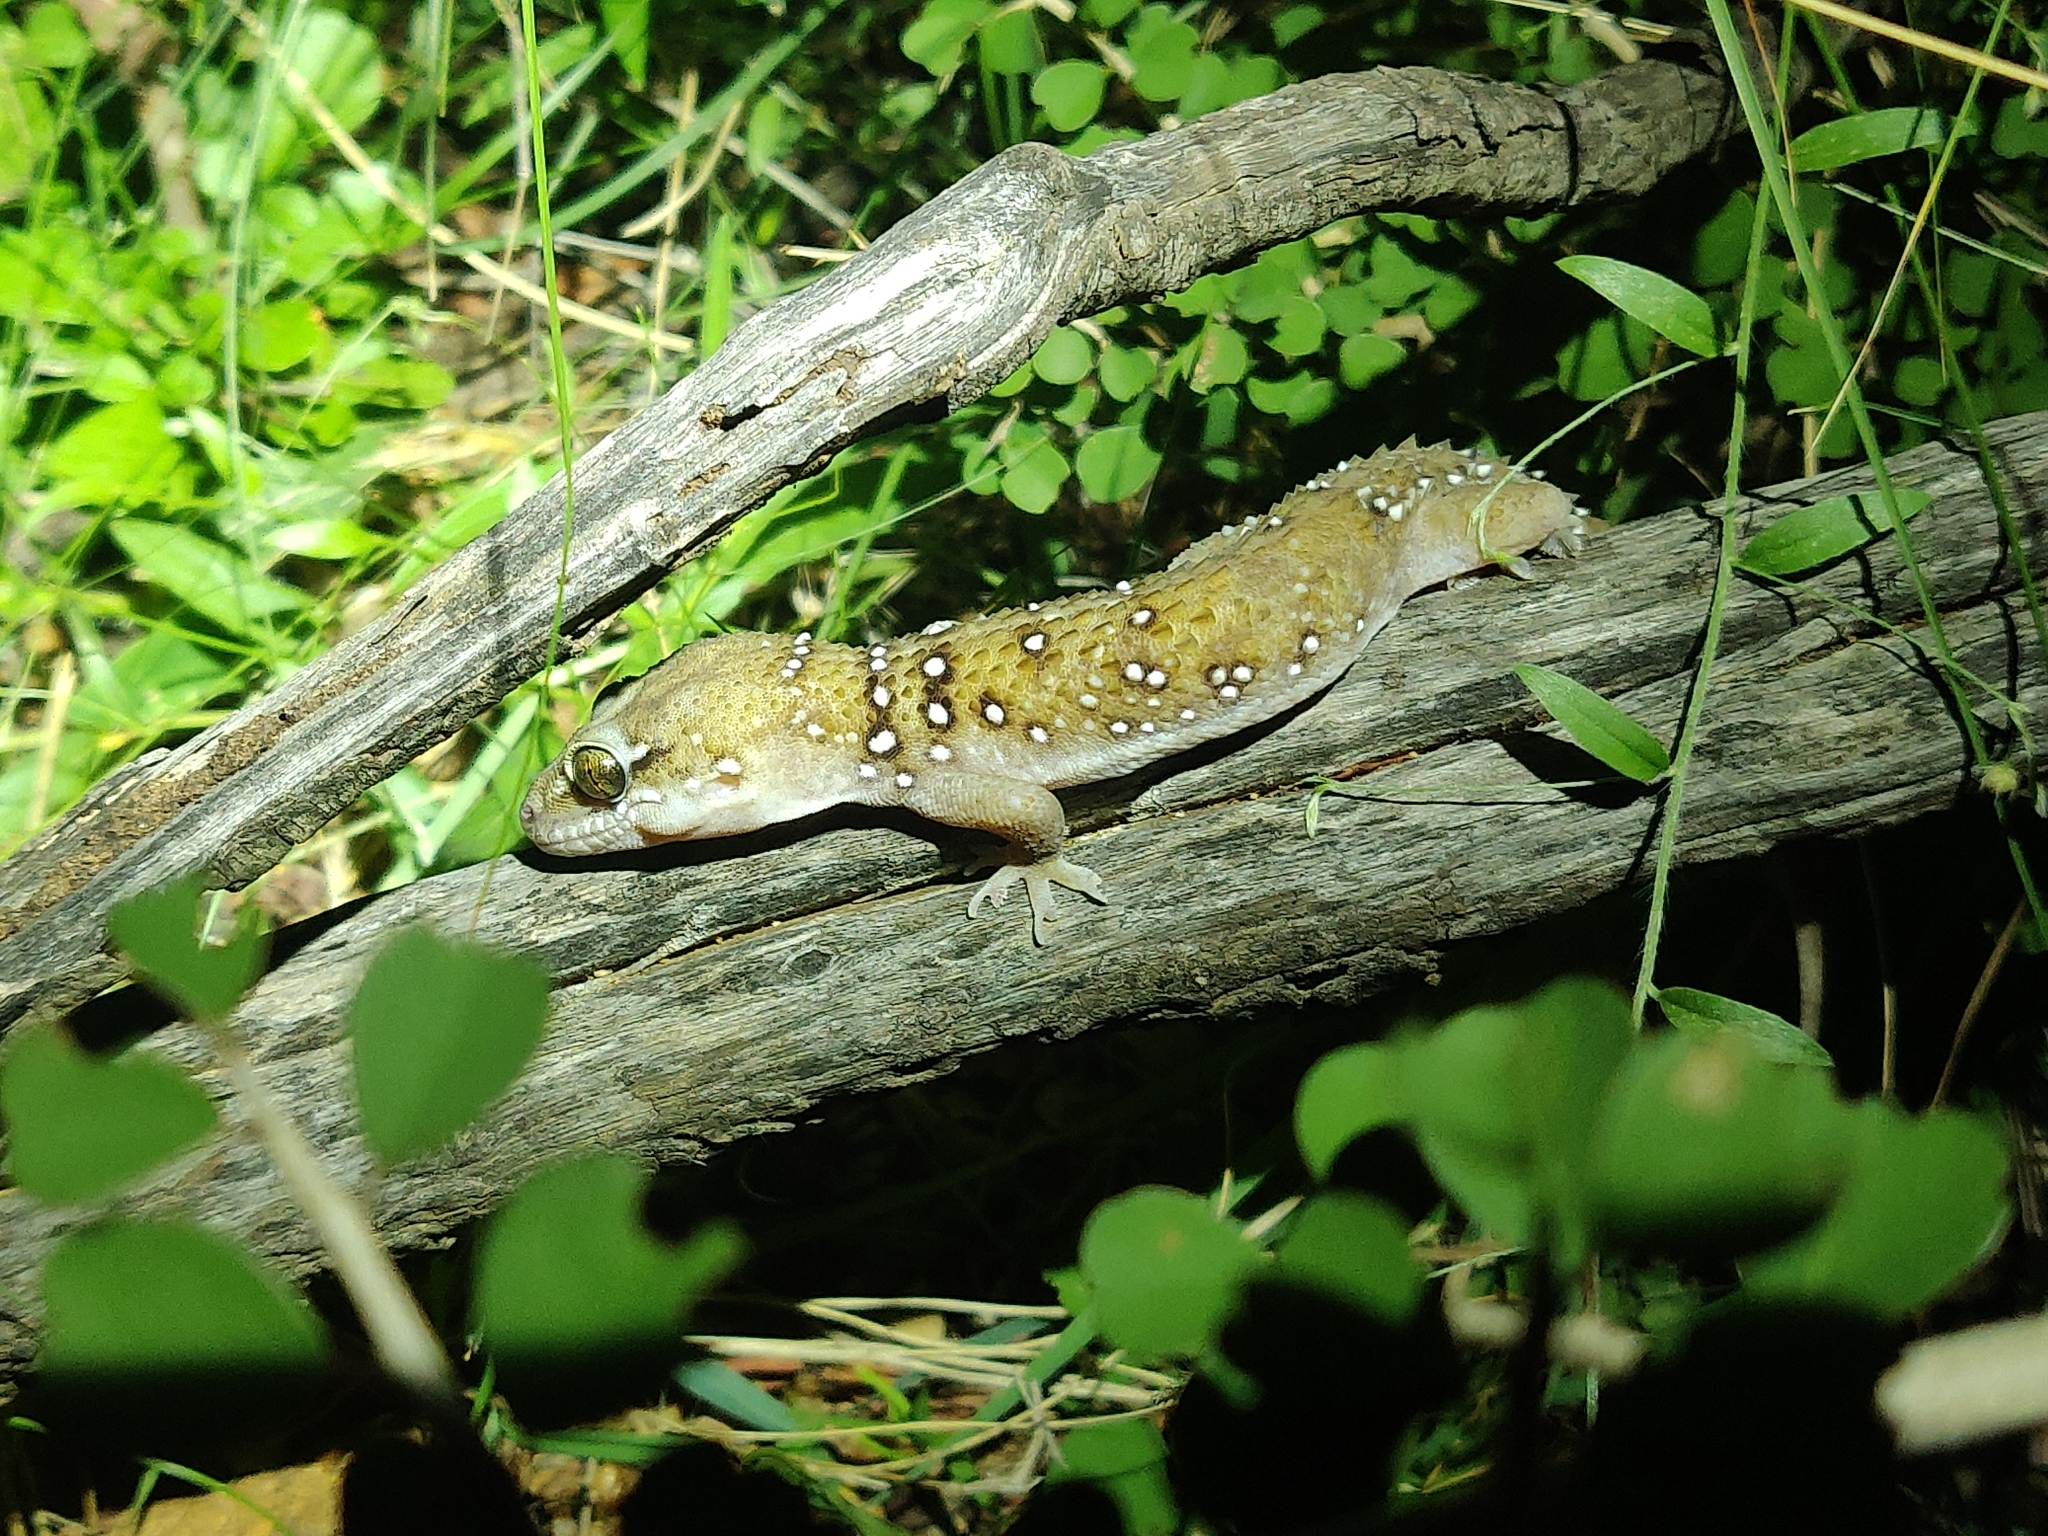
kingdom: Animalia
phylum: Chordata
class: Squamata
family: Gekkonidae
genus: Hemidactylus
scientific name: Hemidactylus triedrus
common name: Blotched house gecko
